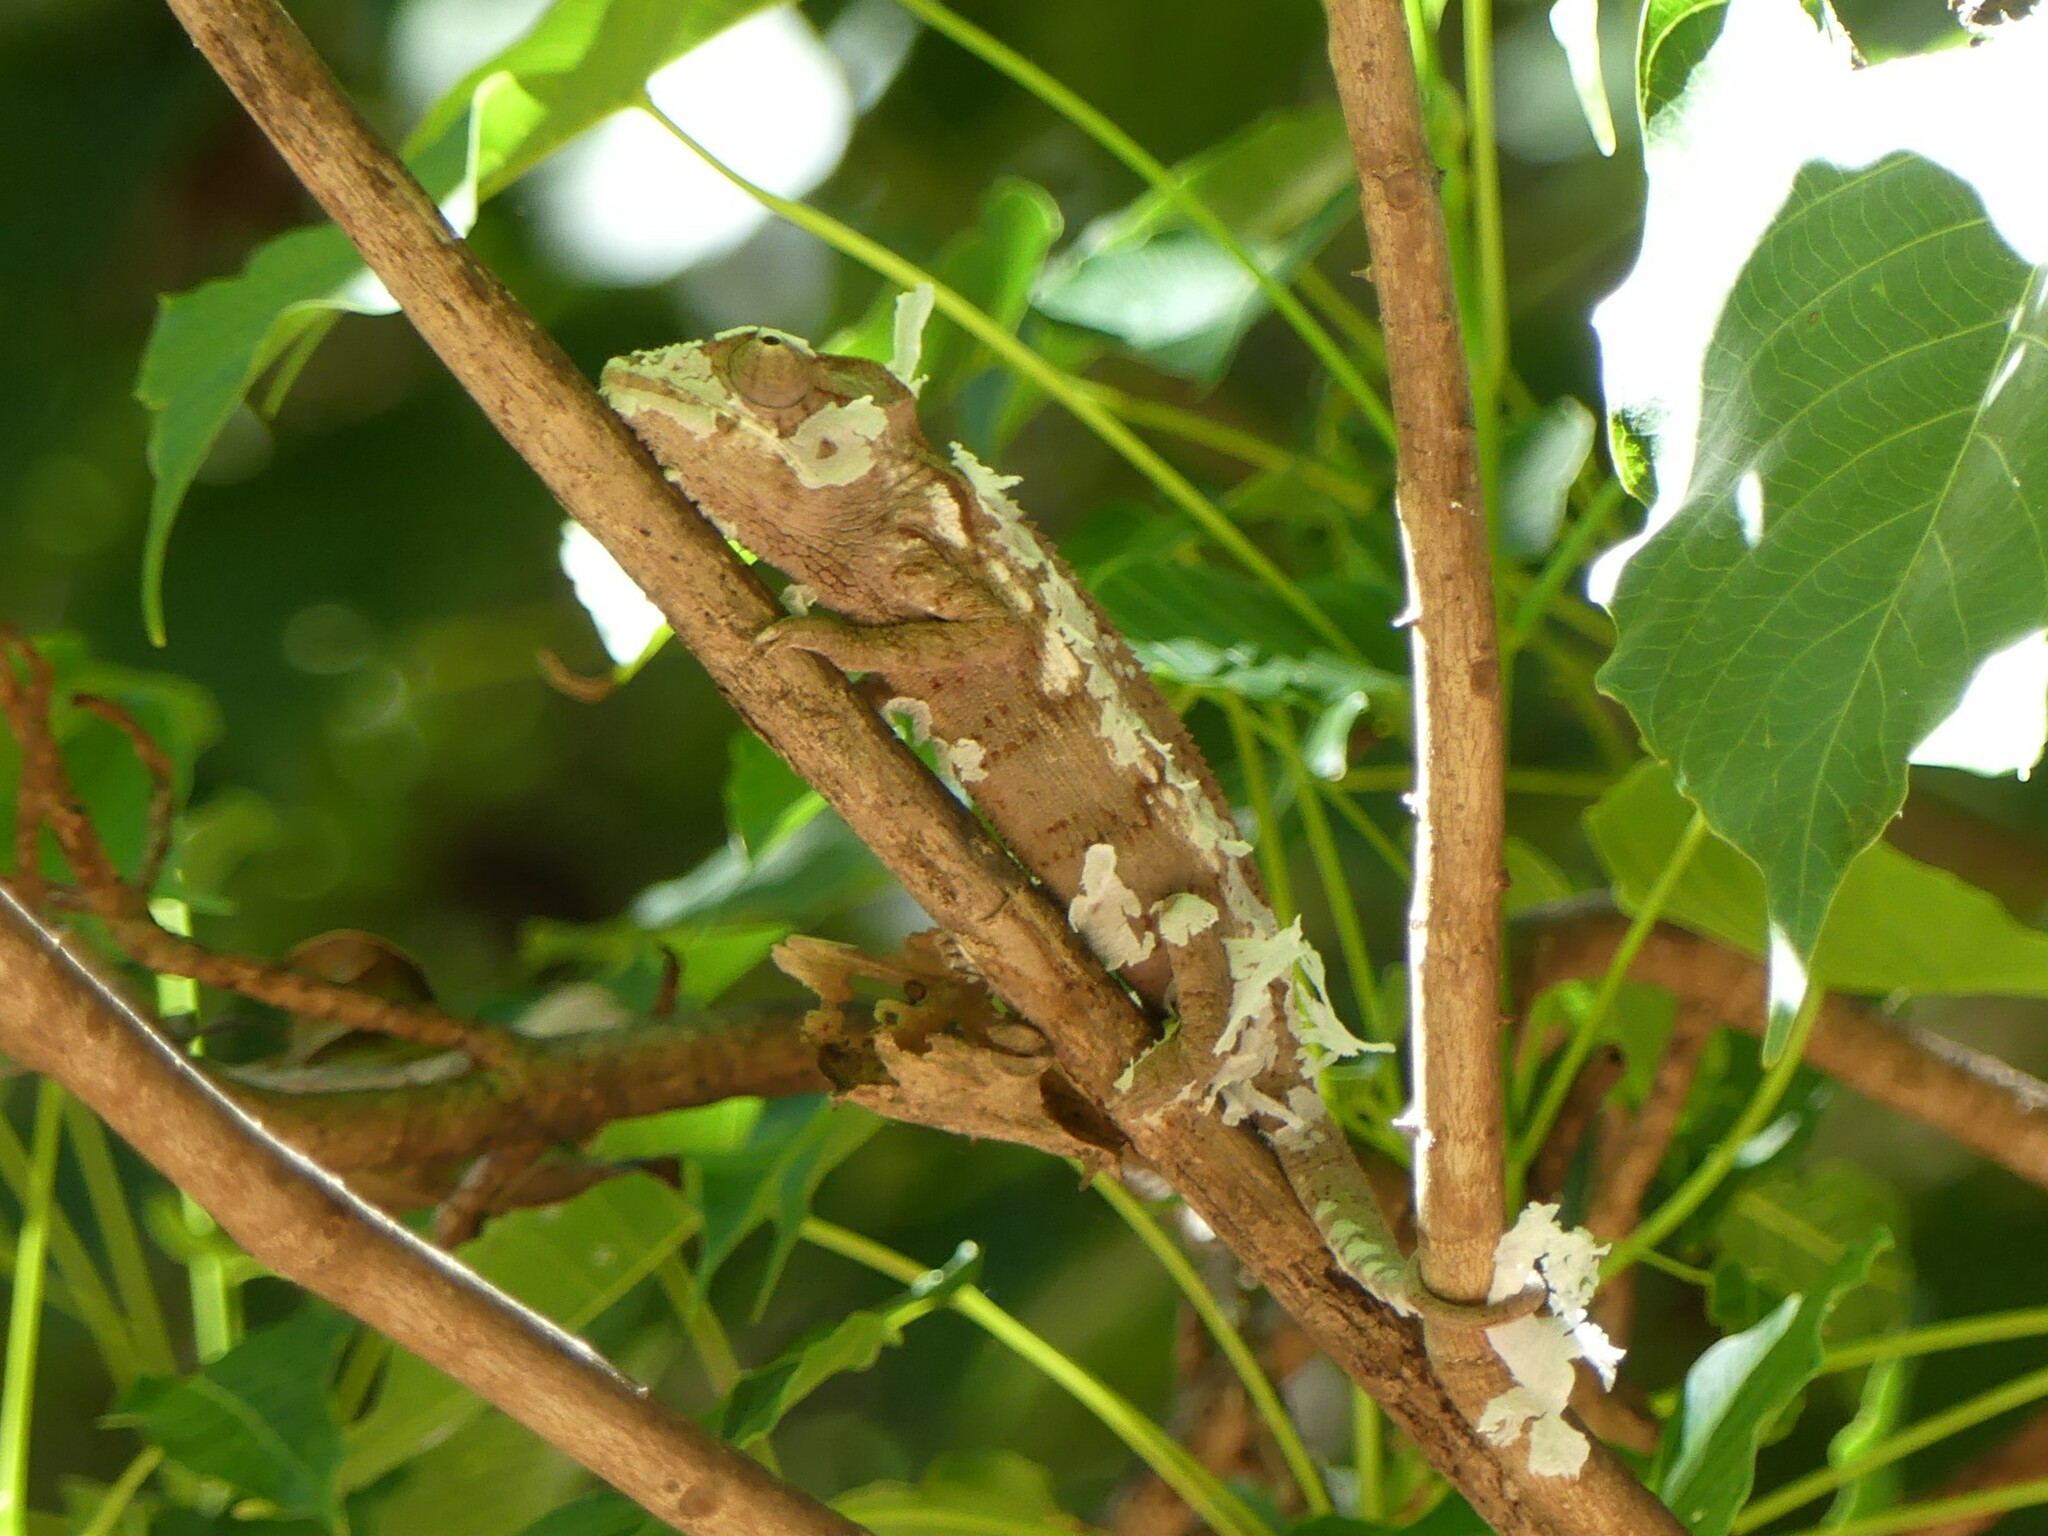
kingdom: Animalia
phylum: Chordata
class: Squamata
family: Chamaeleonidae
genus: Furcifer
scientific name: Furcifer oustaleti
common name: Oustalet's chameleon
